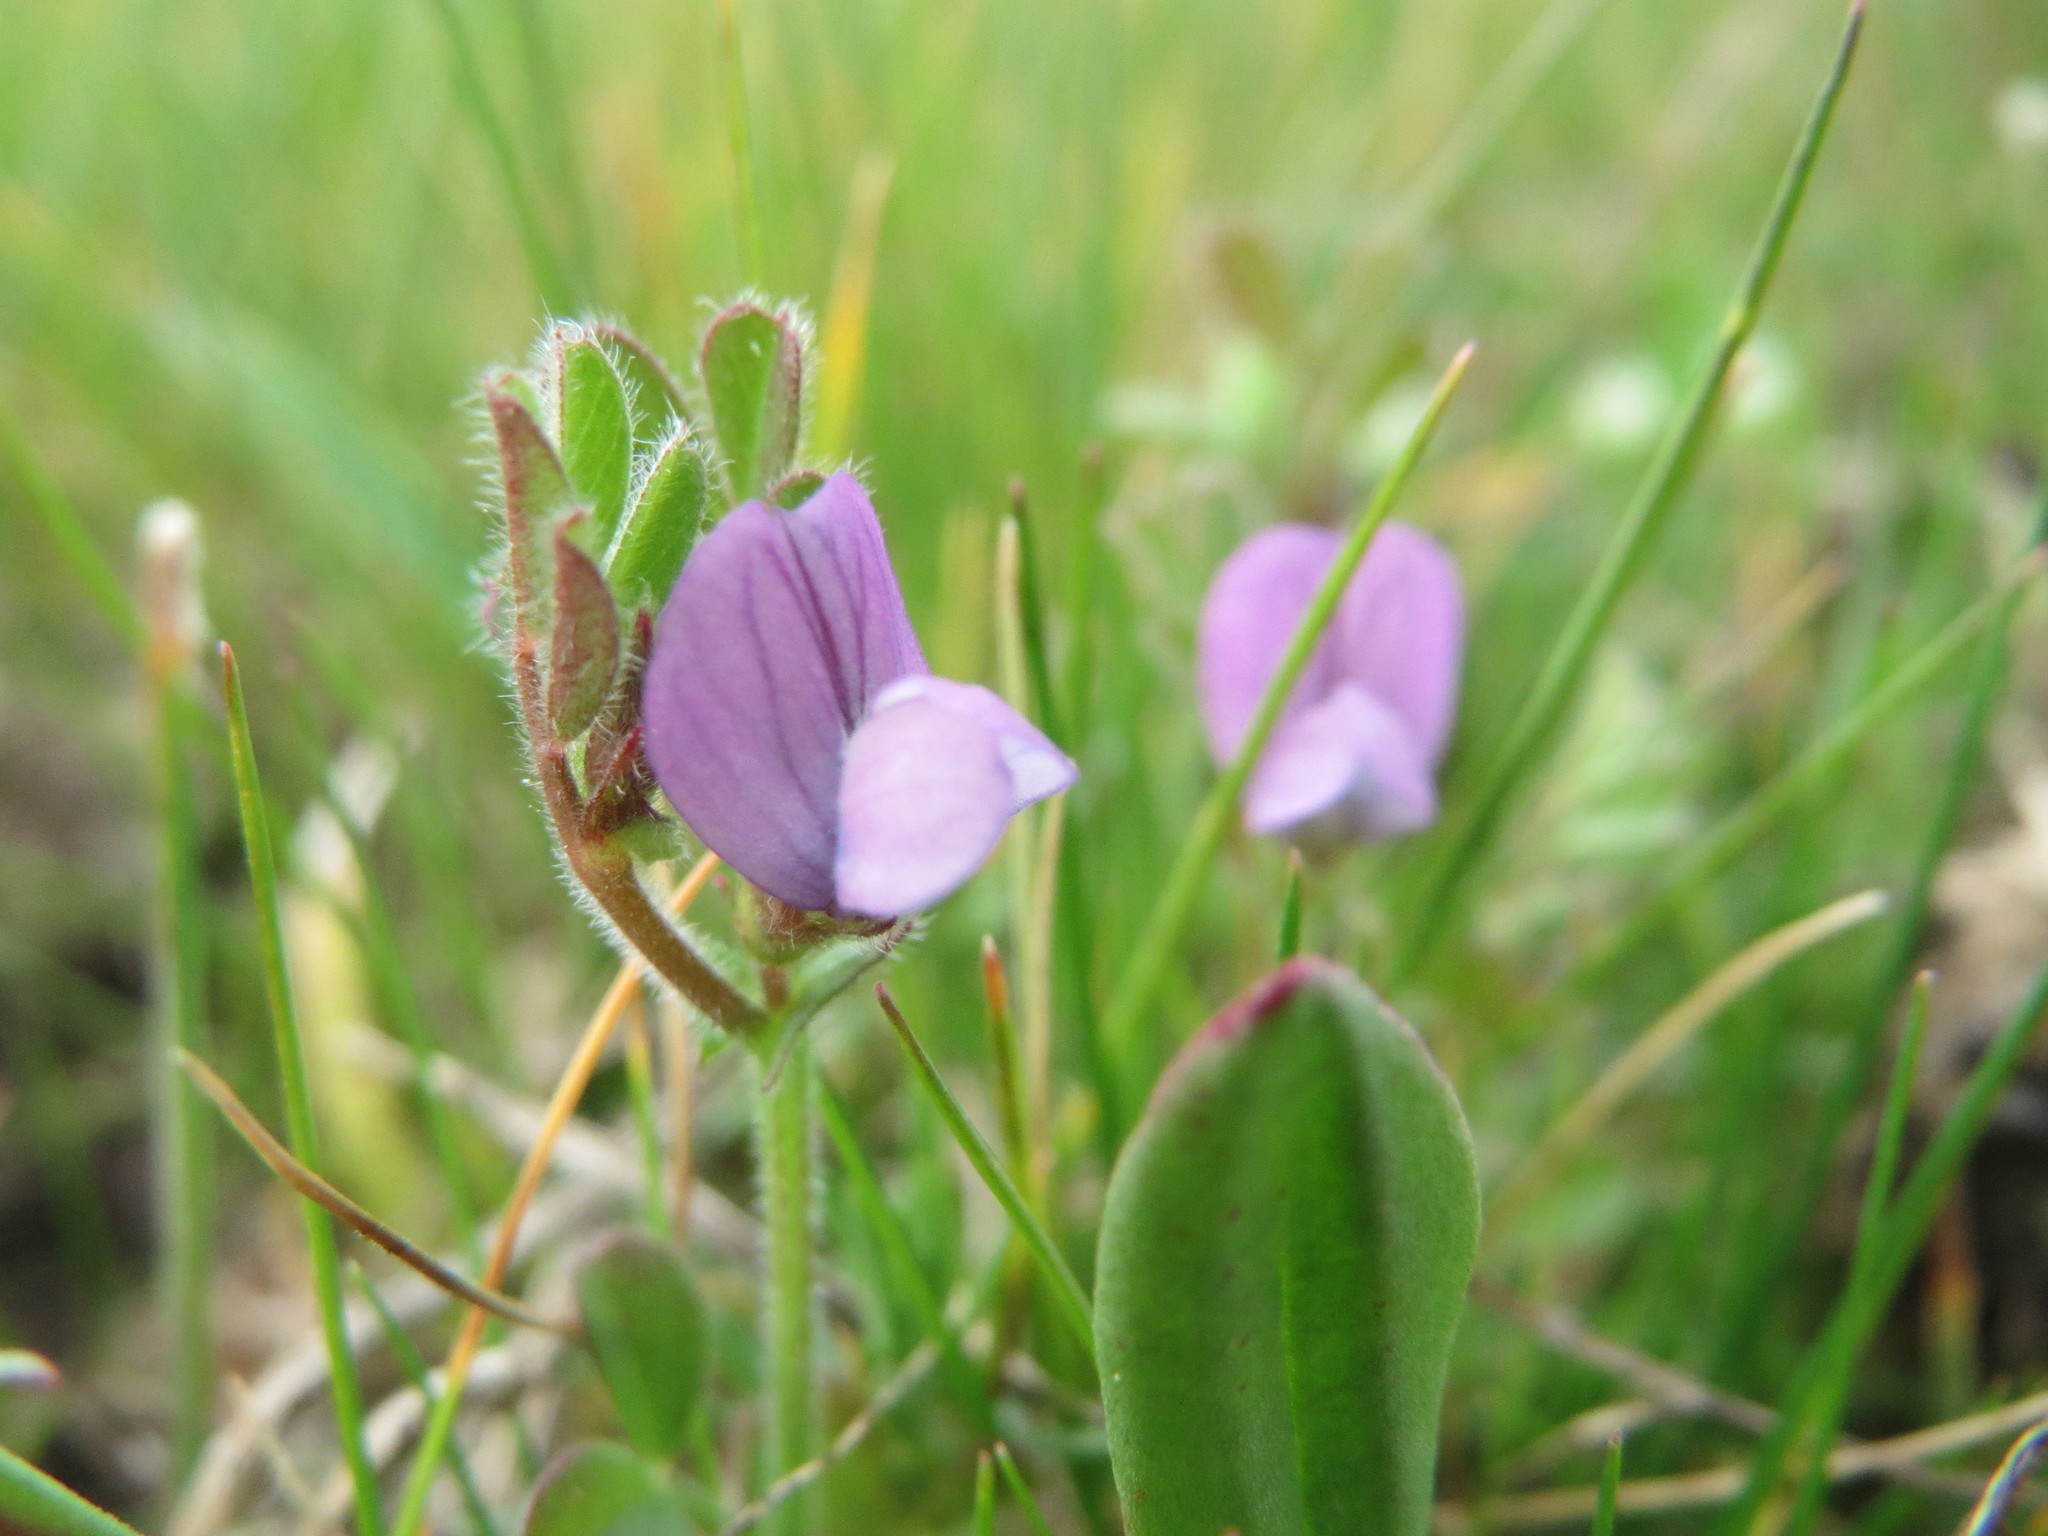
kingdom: Plantae
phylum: Tracheophyta
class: Magnoliopsida
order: Fabales
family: Fabaceae
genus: Vicia
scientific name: Vicia lathyroides
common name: Spring vetch
